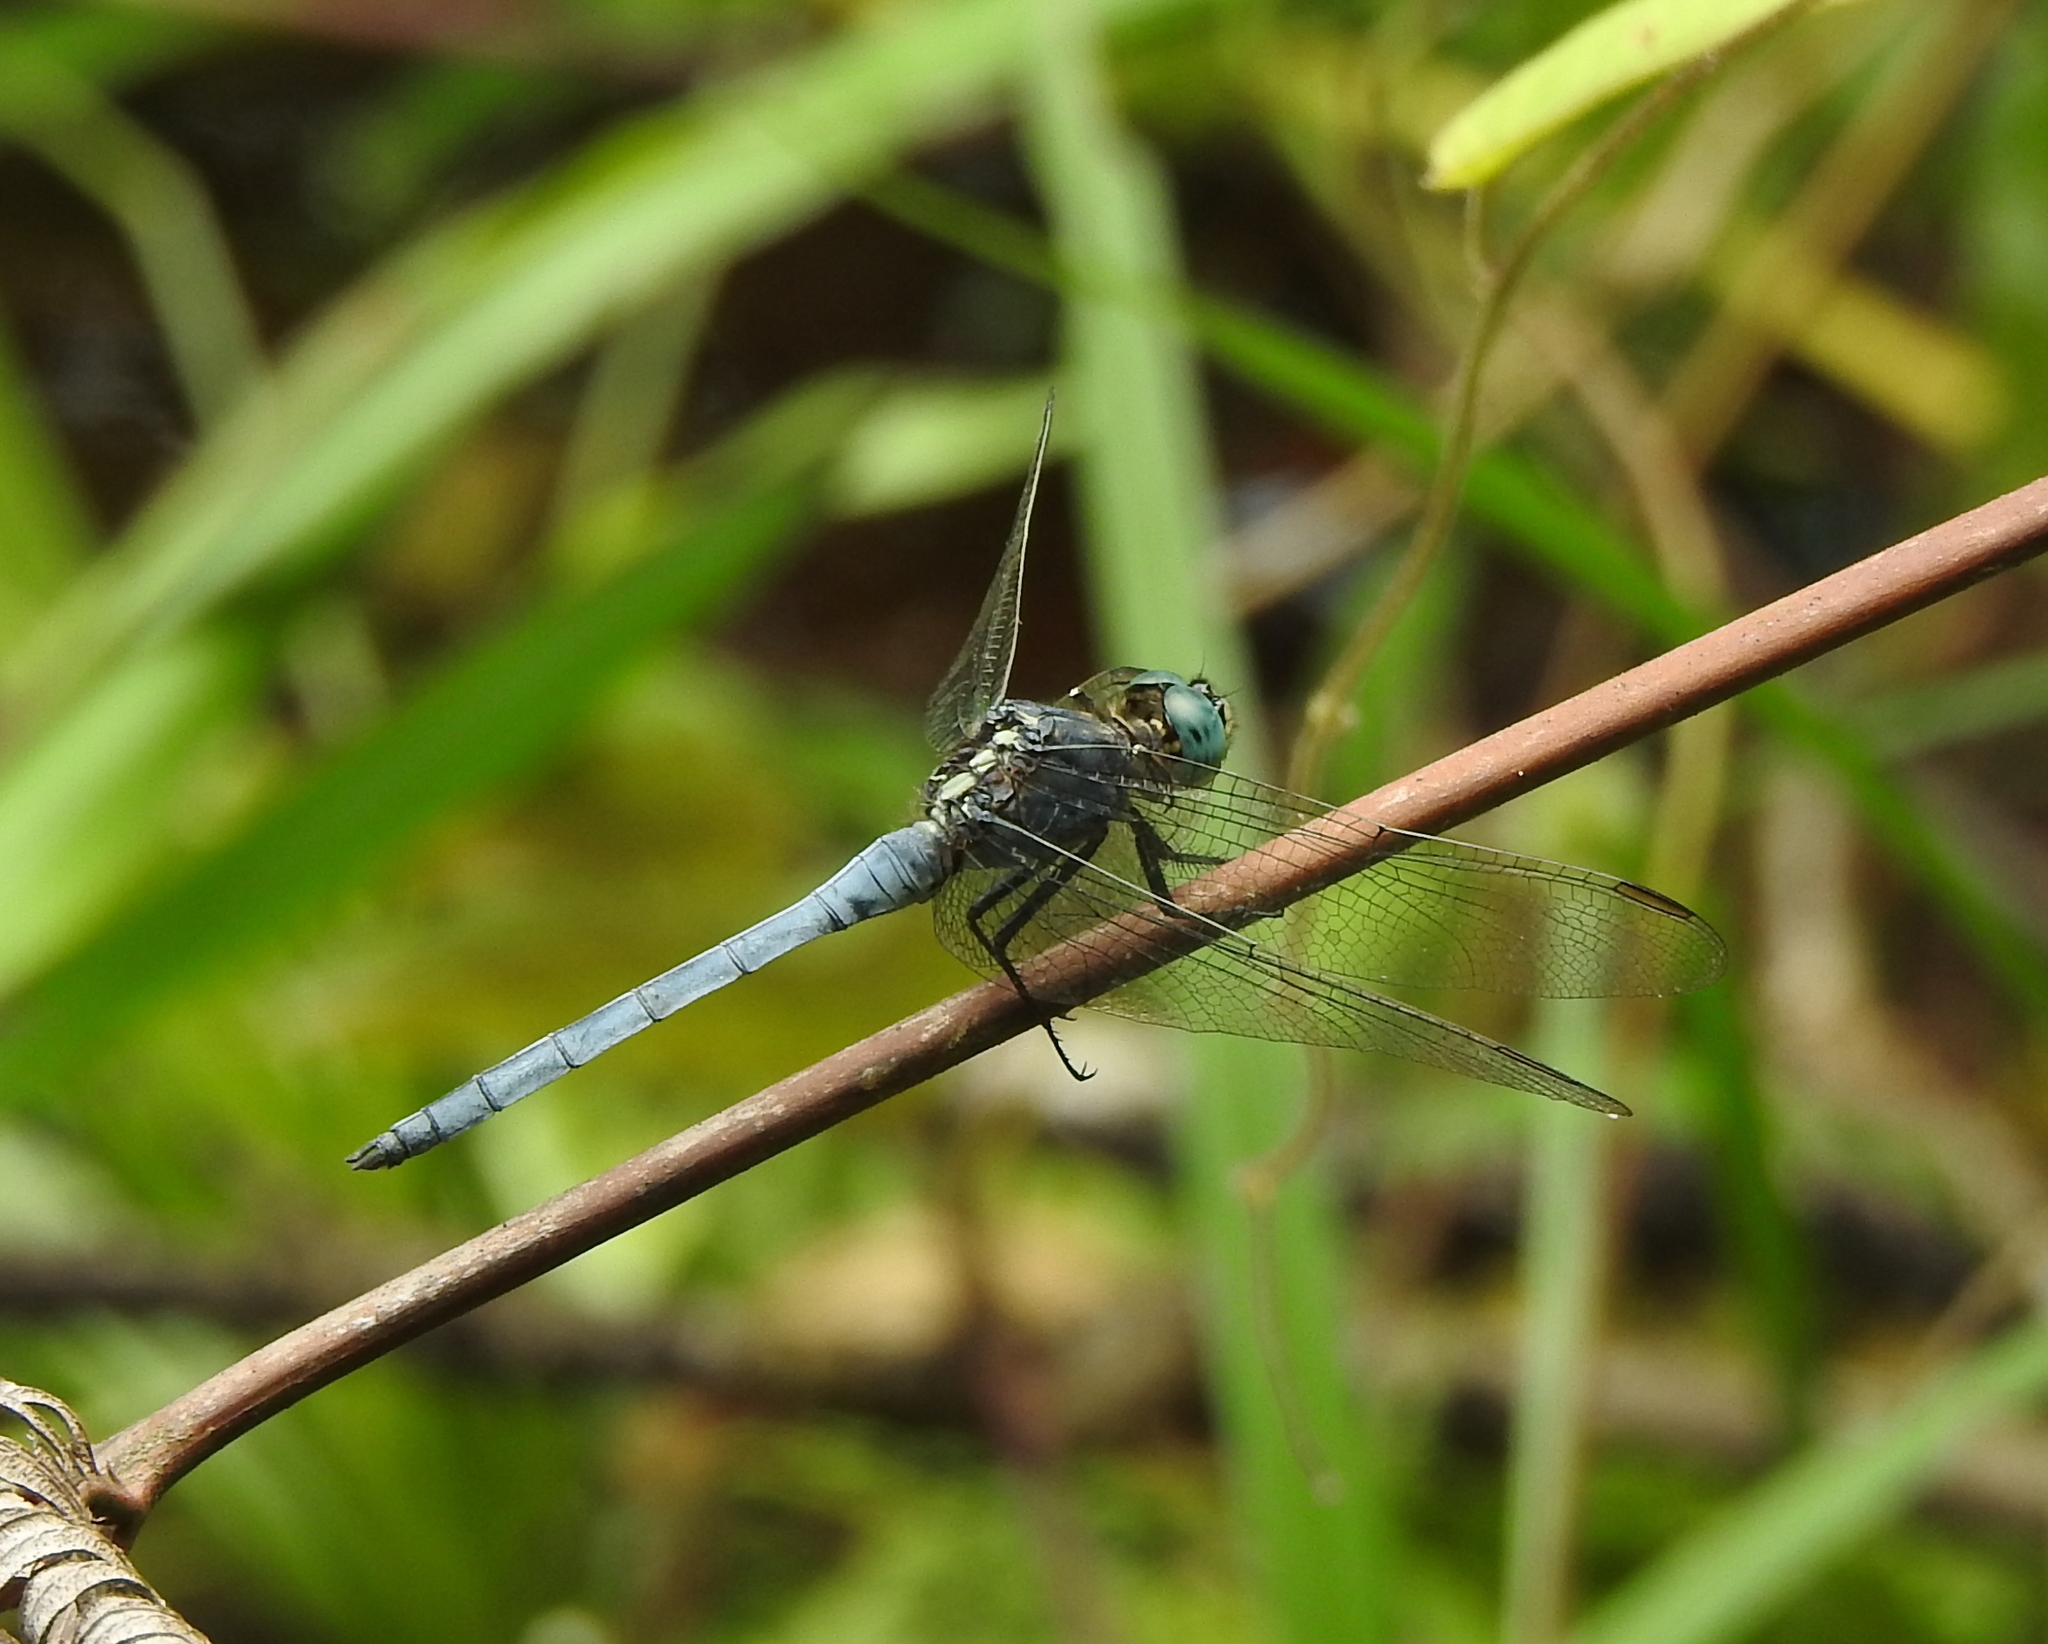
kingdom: Animalia
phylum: Arthropoda
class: Insecta
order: Odonata
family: Libellulidae
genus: Orthetrum
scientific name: Orthetrum luzonicum
